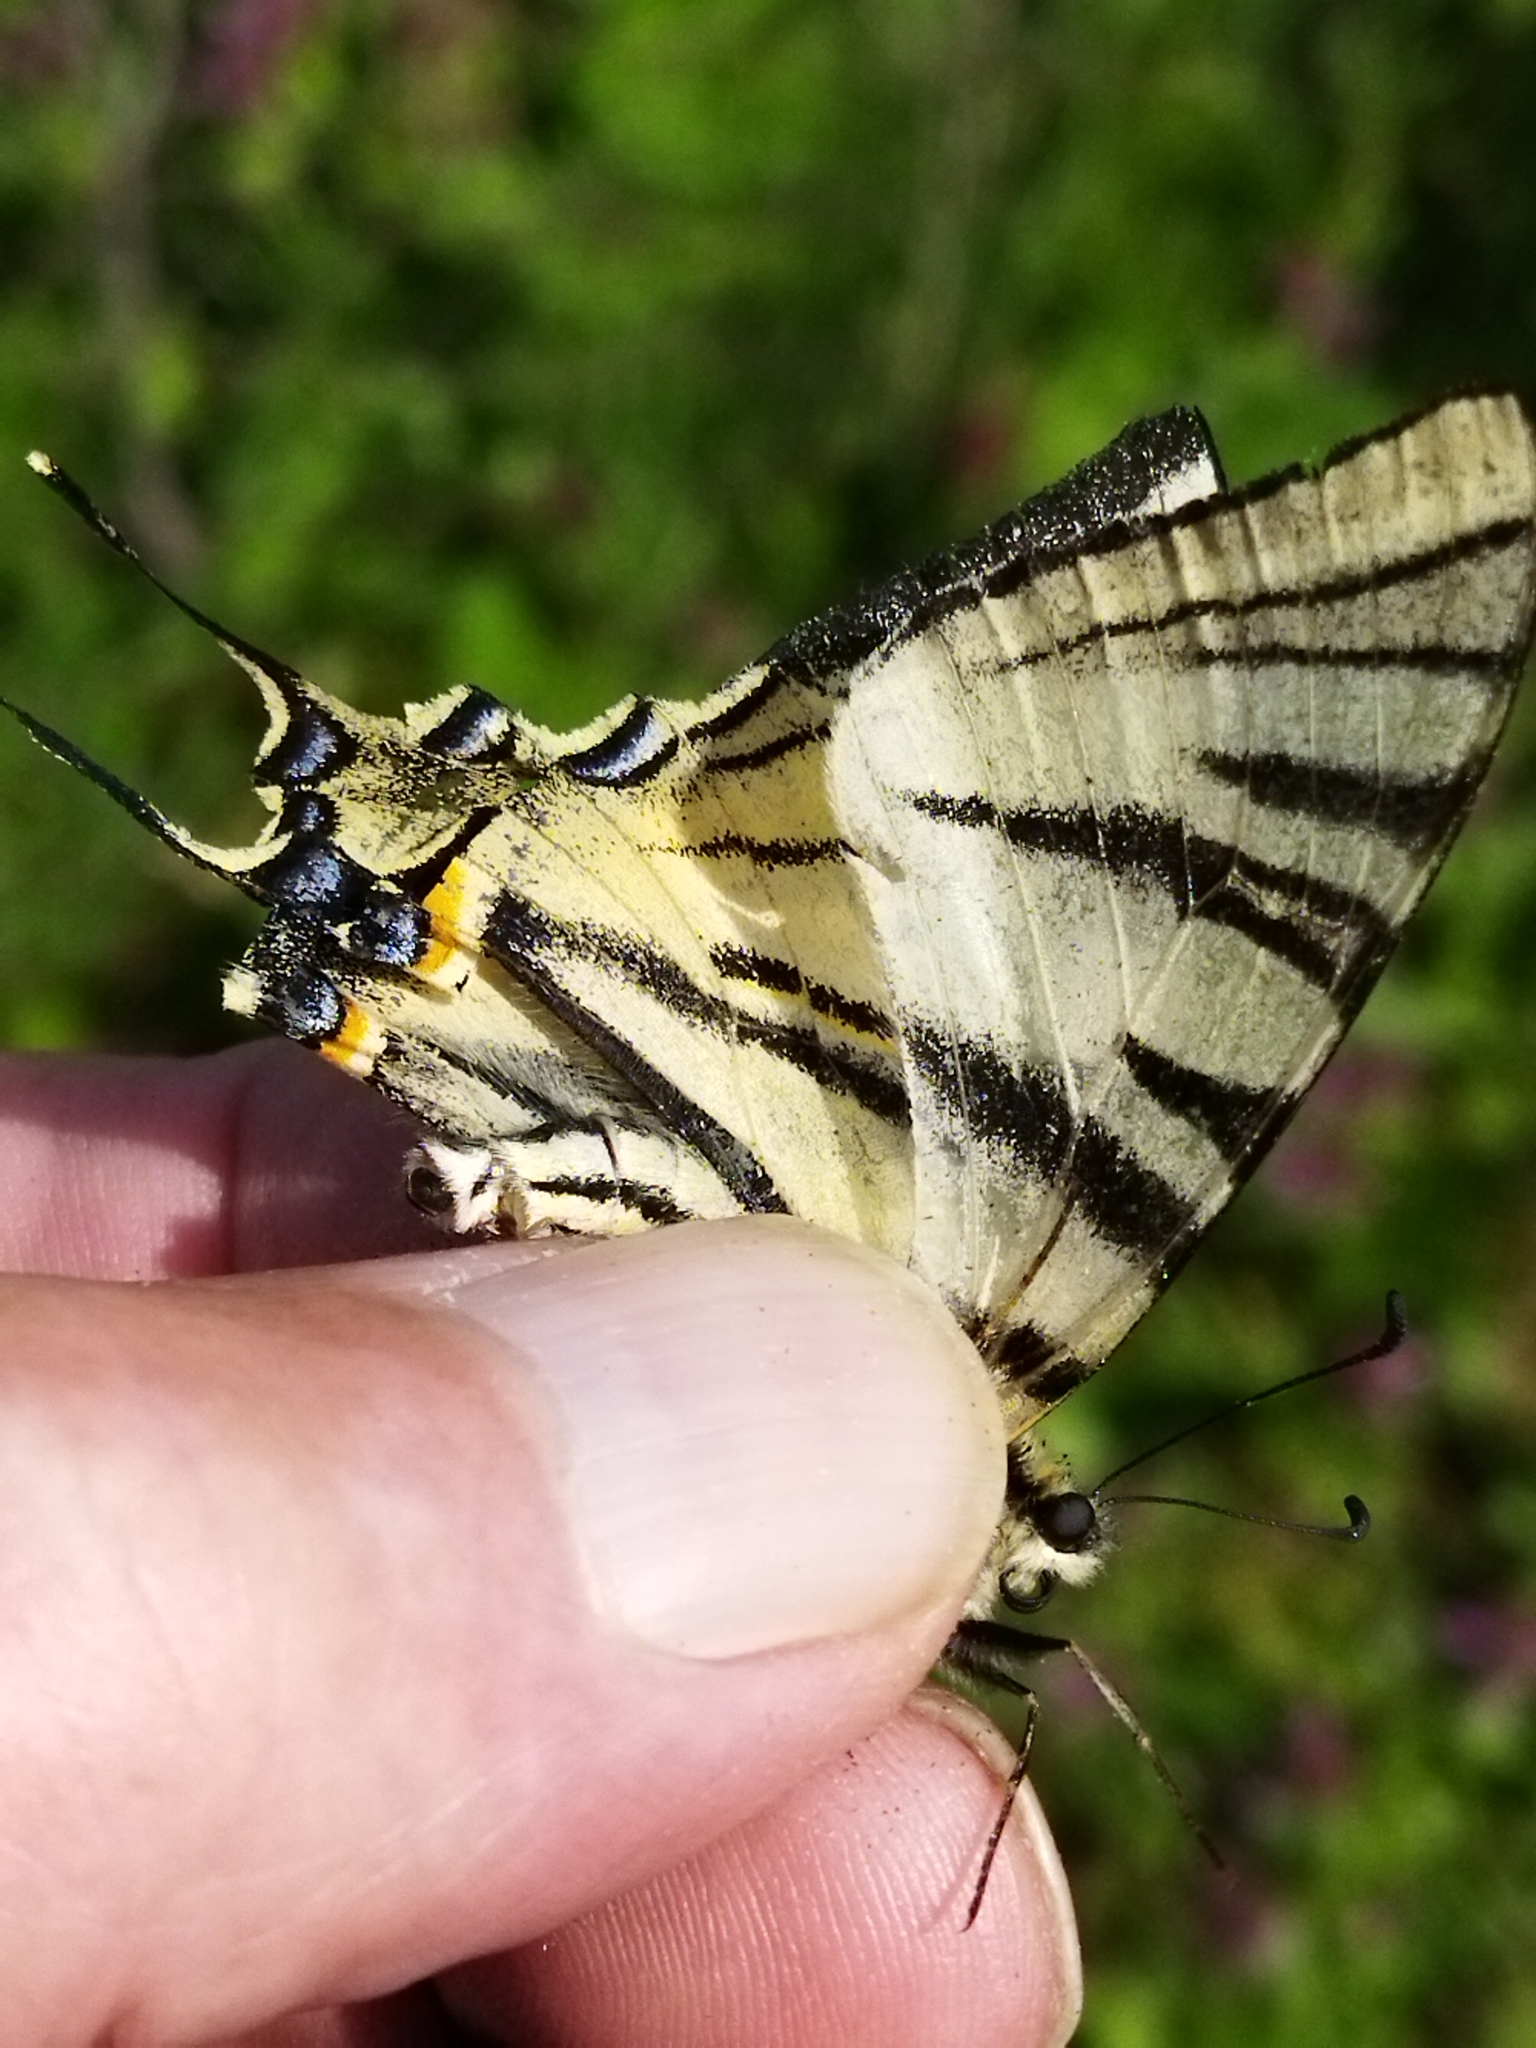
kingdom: Animalia
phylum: Arthropoda
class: Insecta
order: Lepidoptera
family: Papilionidae
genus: Iphiclides
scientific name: Iphiclides podalirius
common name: Scarce swallowtail
